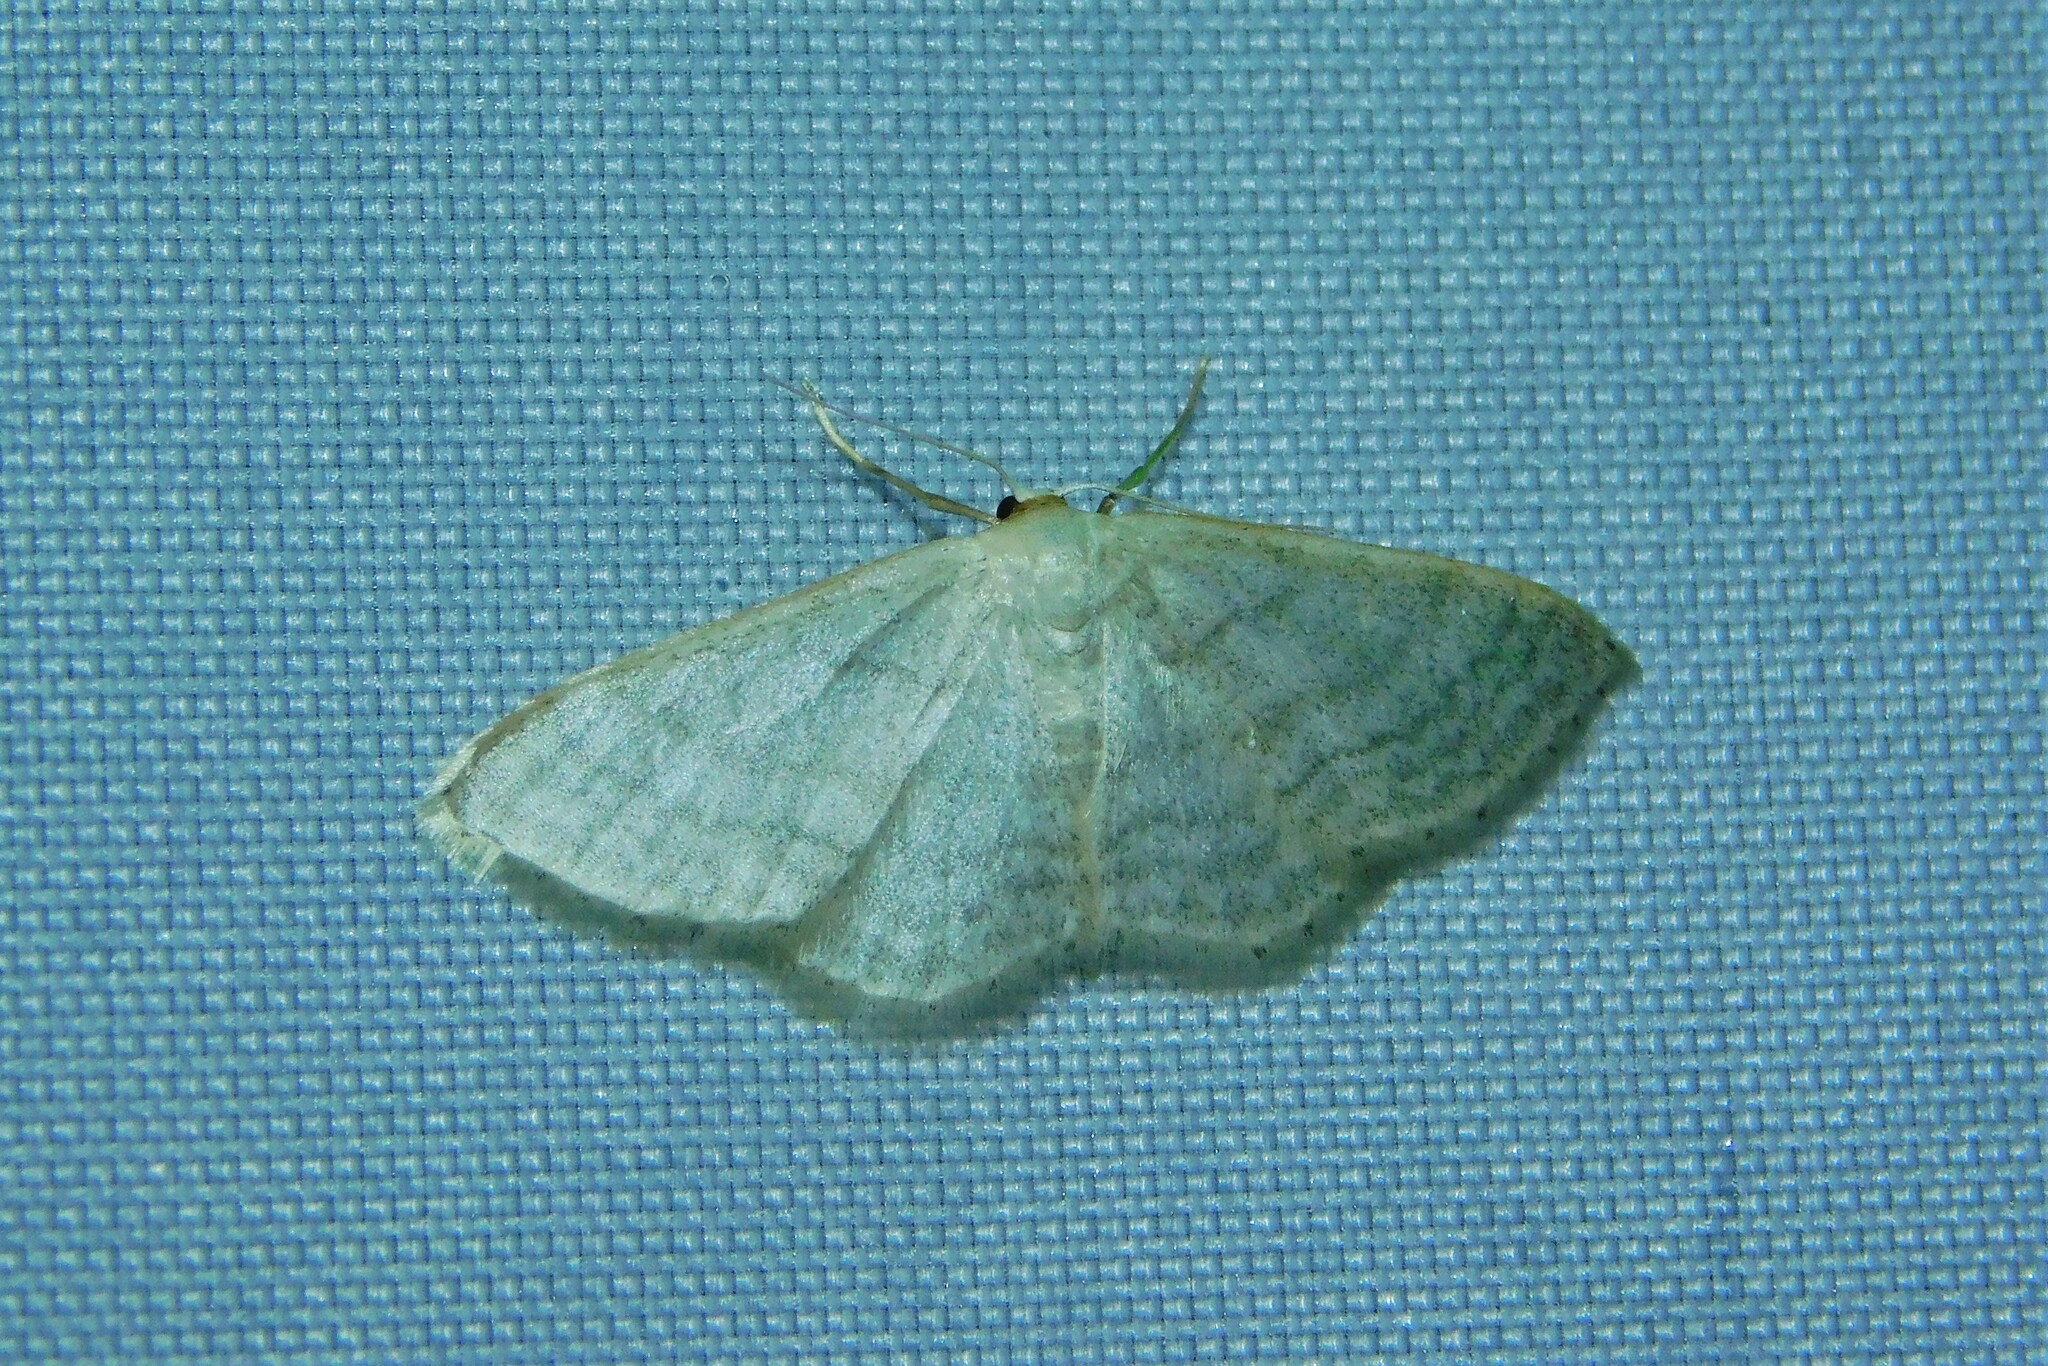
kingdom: Animalia
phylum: Arthropoda
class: Insecta
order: Lepidoptera
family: Geometridae
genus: Idaea
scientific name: Idaea subsericeata
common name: Satin wave
